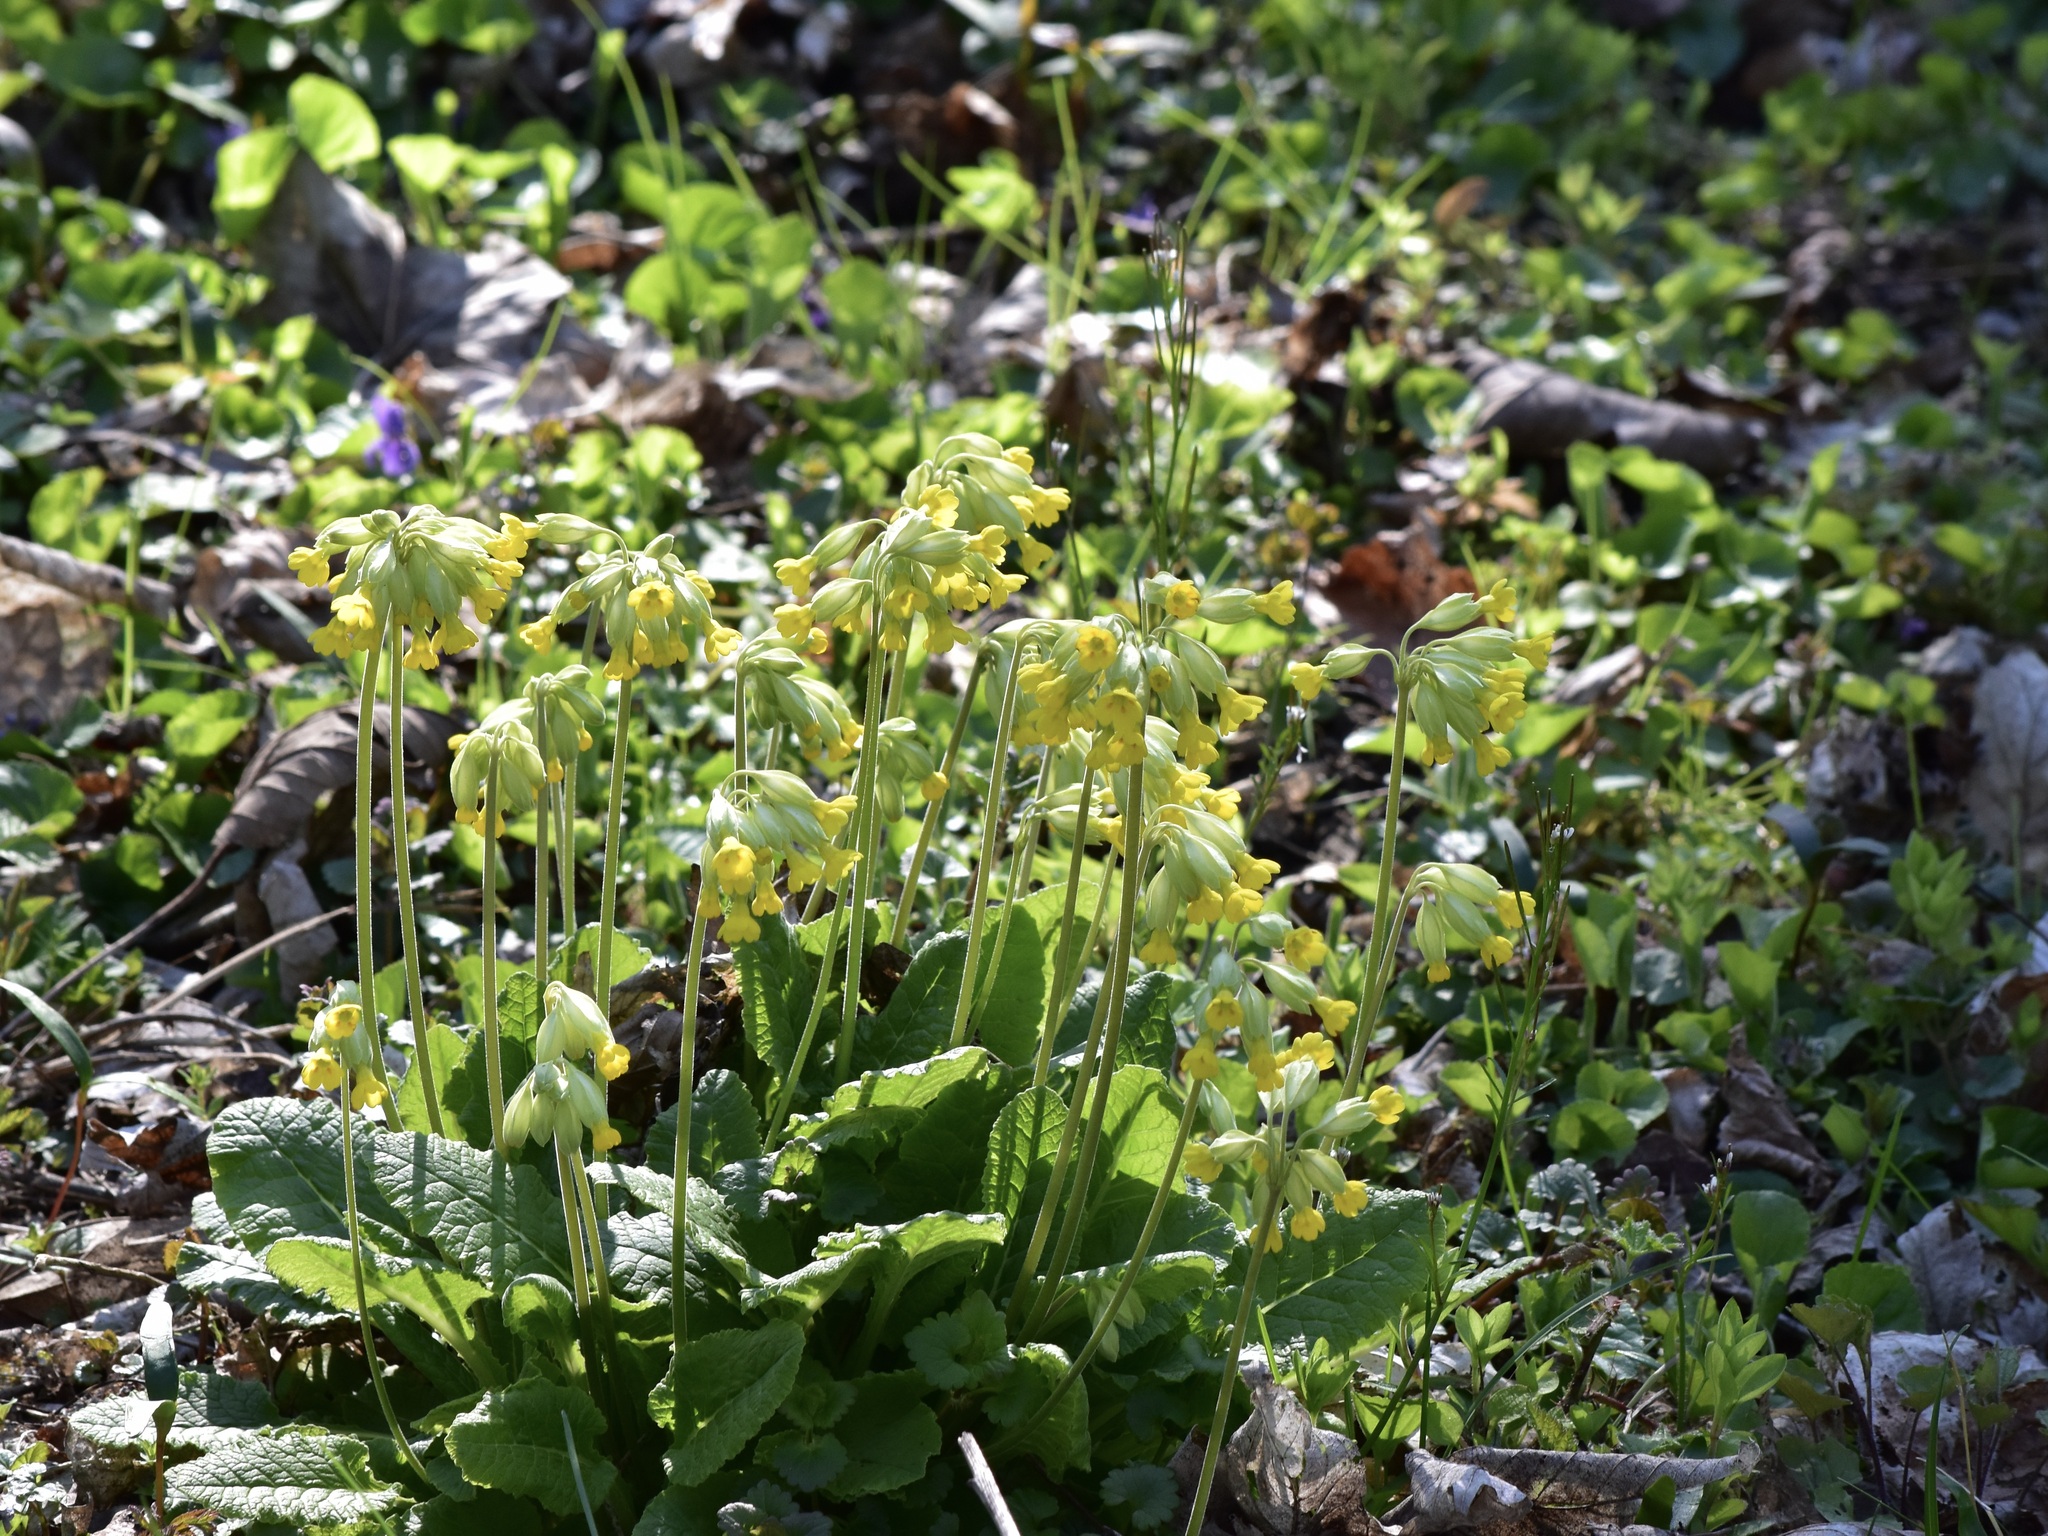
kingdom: Plantae
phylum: Tracheophyta
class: Magnoliopsida
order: Ericales
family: Primulaceae
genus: Primula
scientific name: Primula veris
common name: Cowslip
